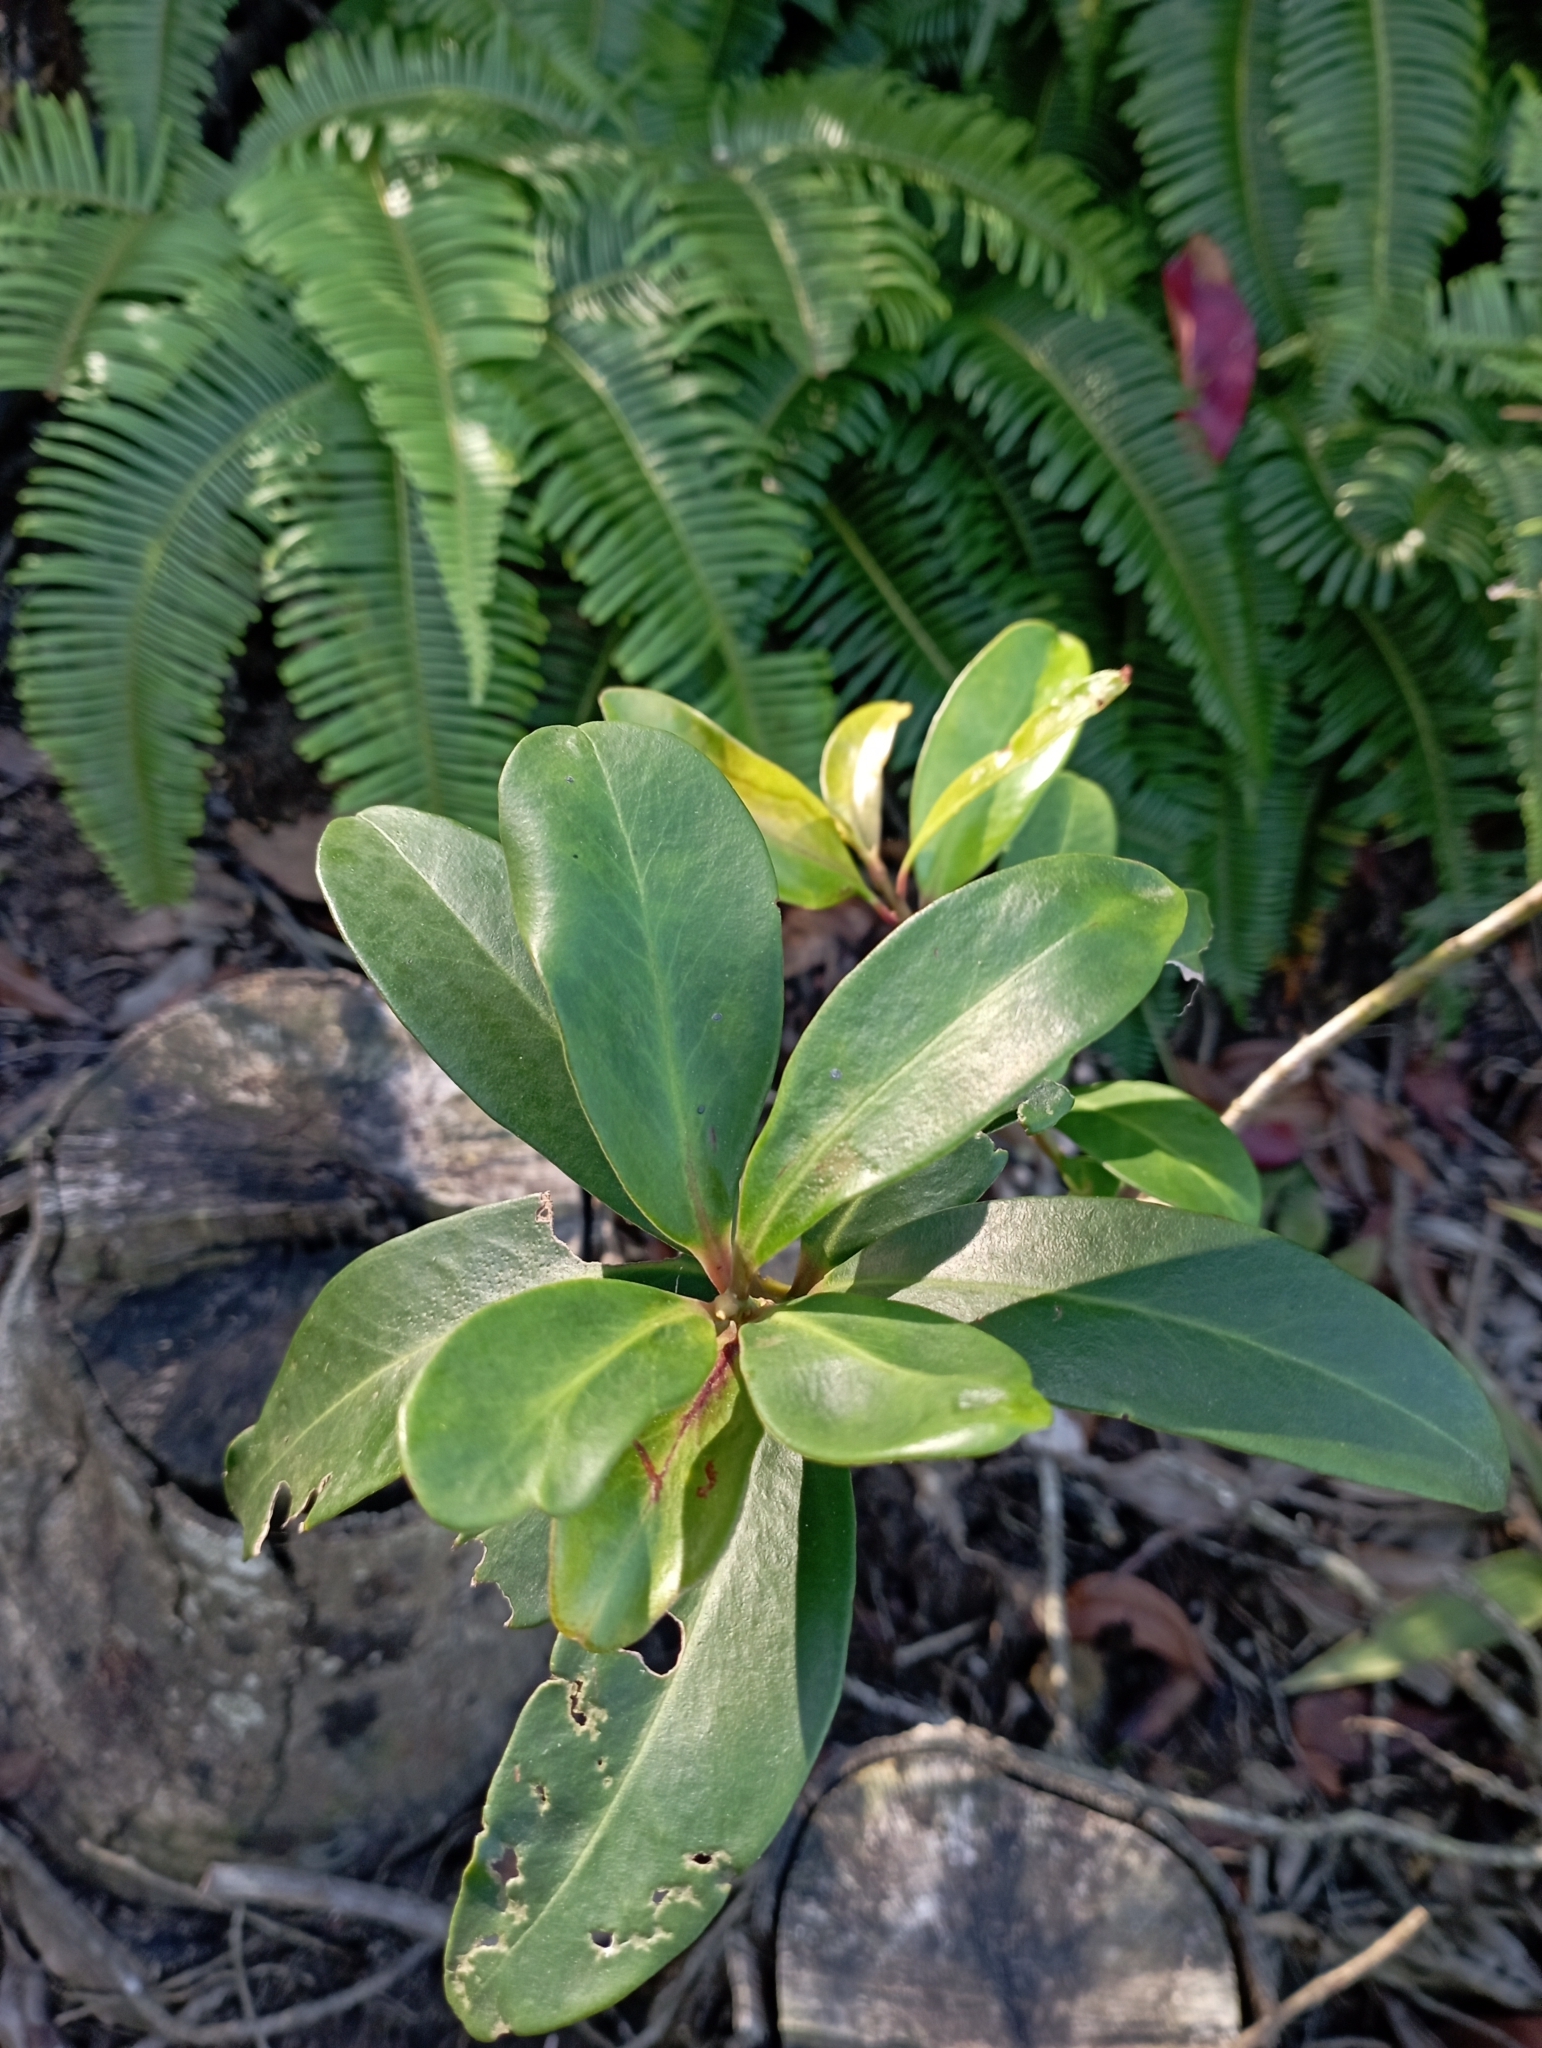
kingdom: Plantae
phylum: Tracheophyta
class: Magnoliopsida
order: Ericales
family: Primulaceae
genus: Myrsine
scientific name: Myrsine seguinii
